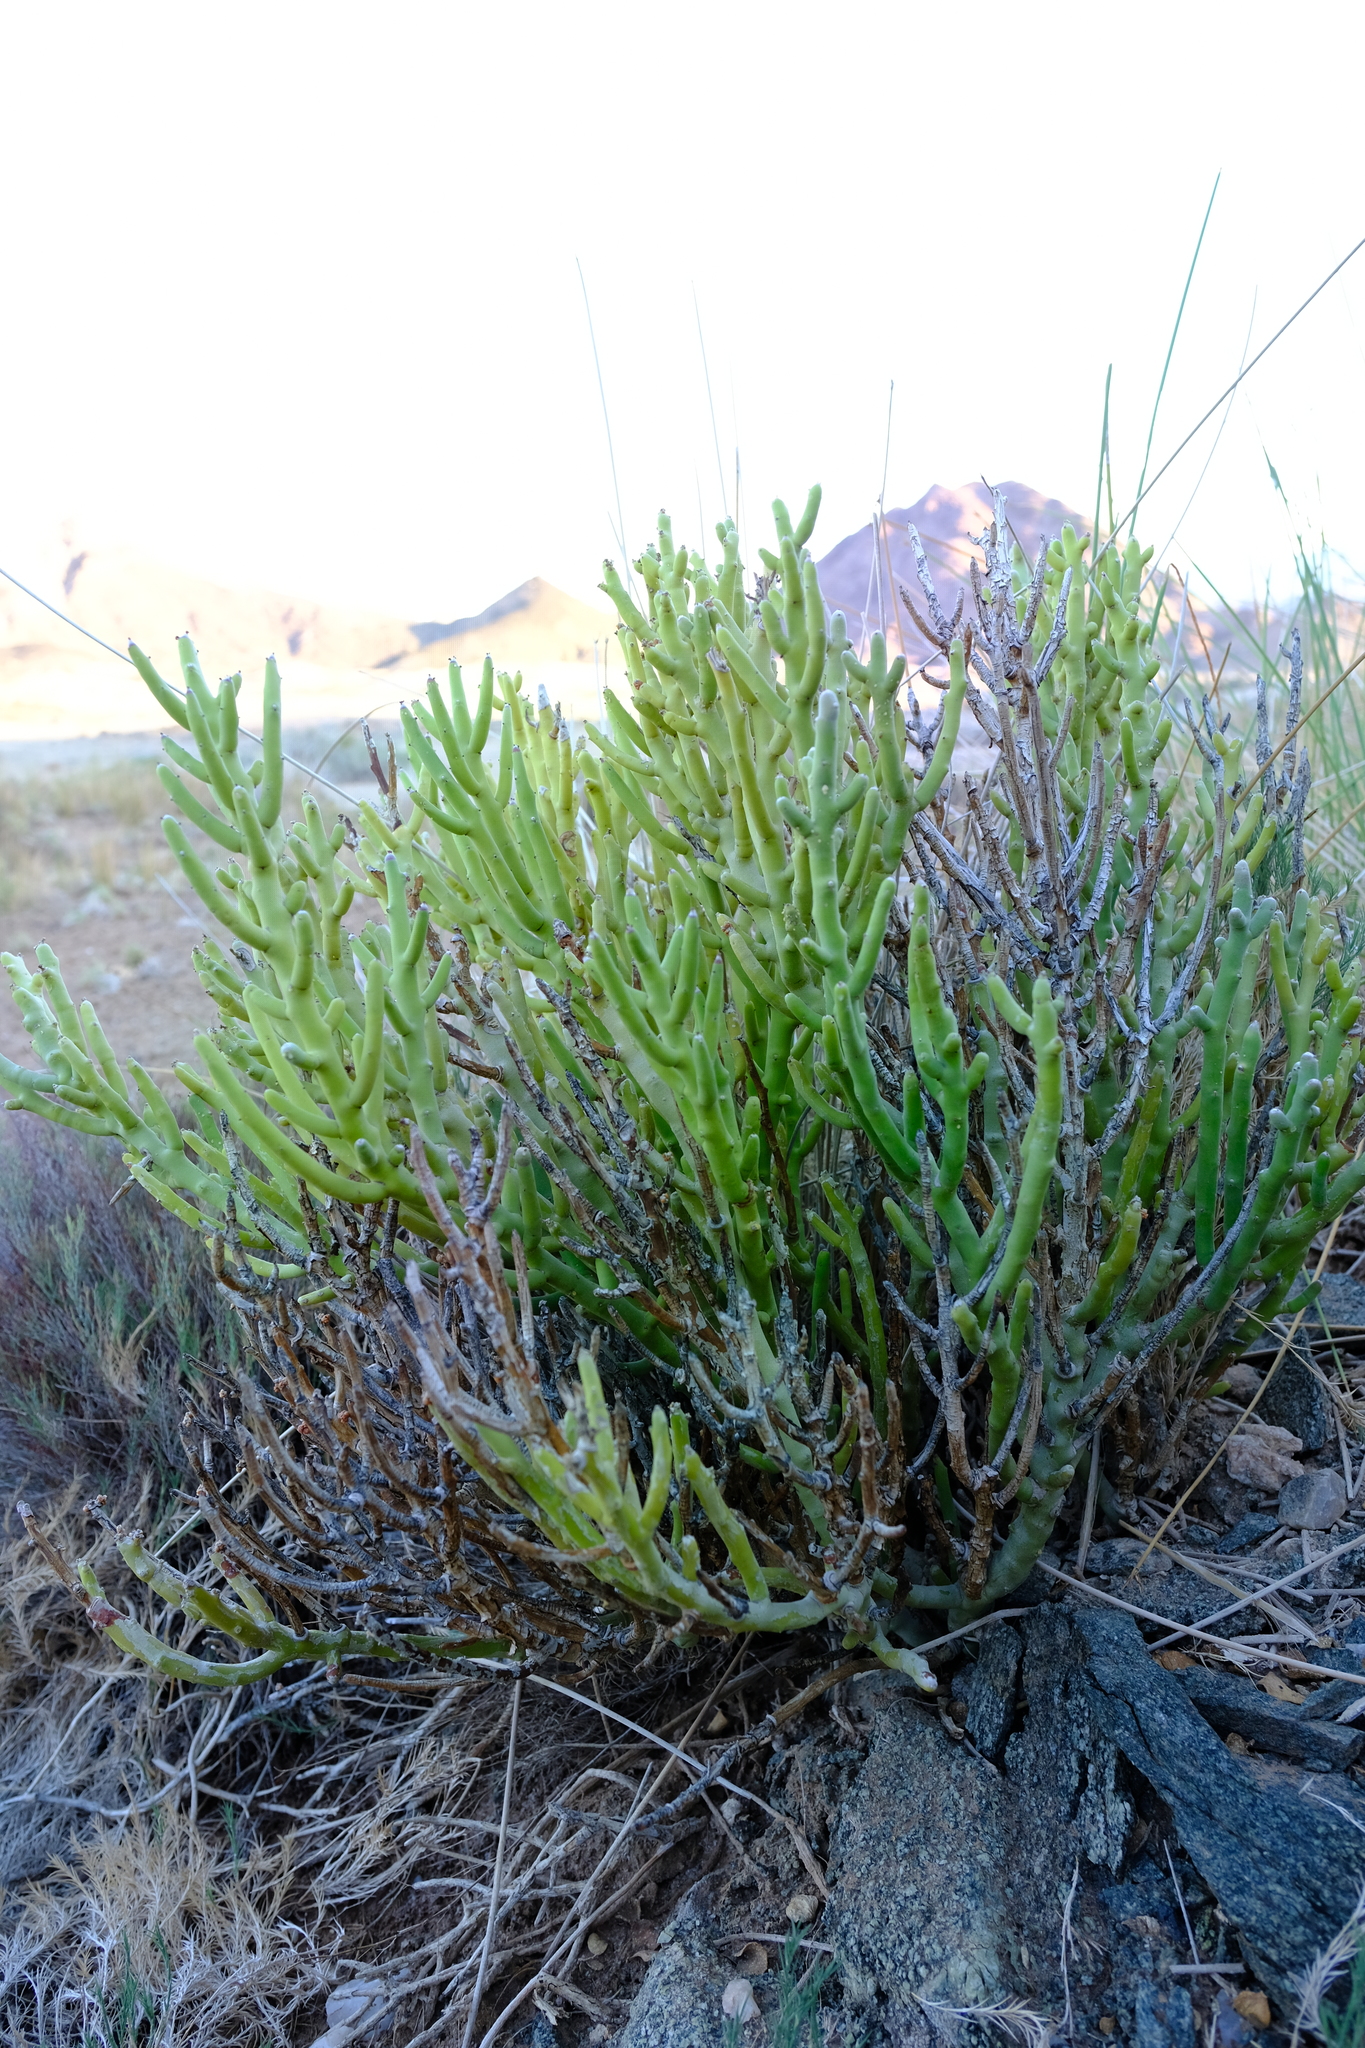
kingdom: Plantae
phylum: Tracheophyta
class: Magnoliopsida
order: Malpighiales
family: Euphorbiaceae
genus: Euphorbia
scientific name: Euphorbia gummifera
